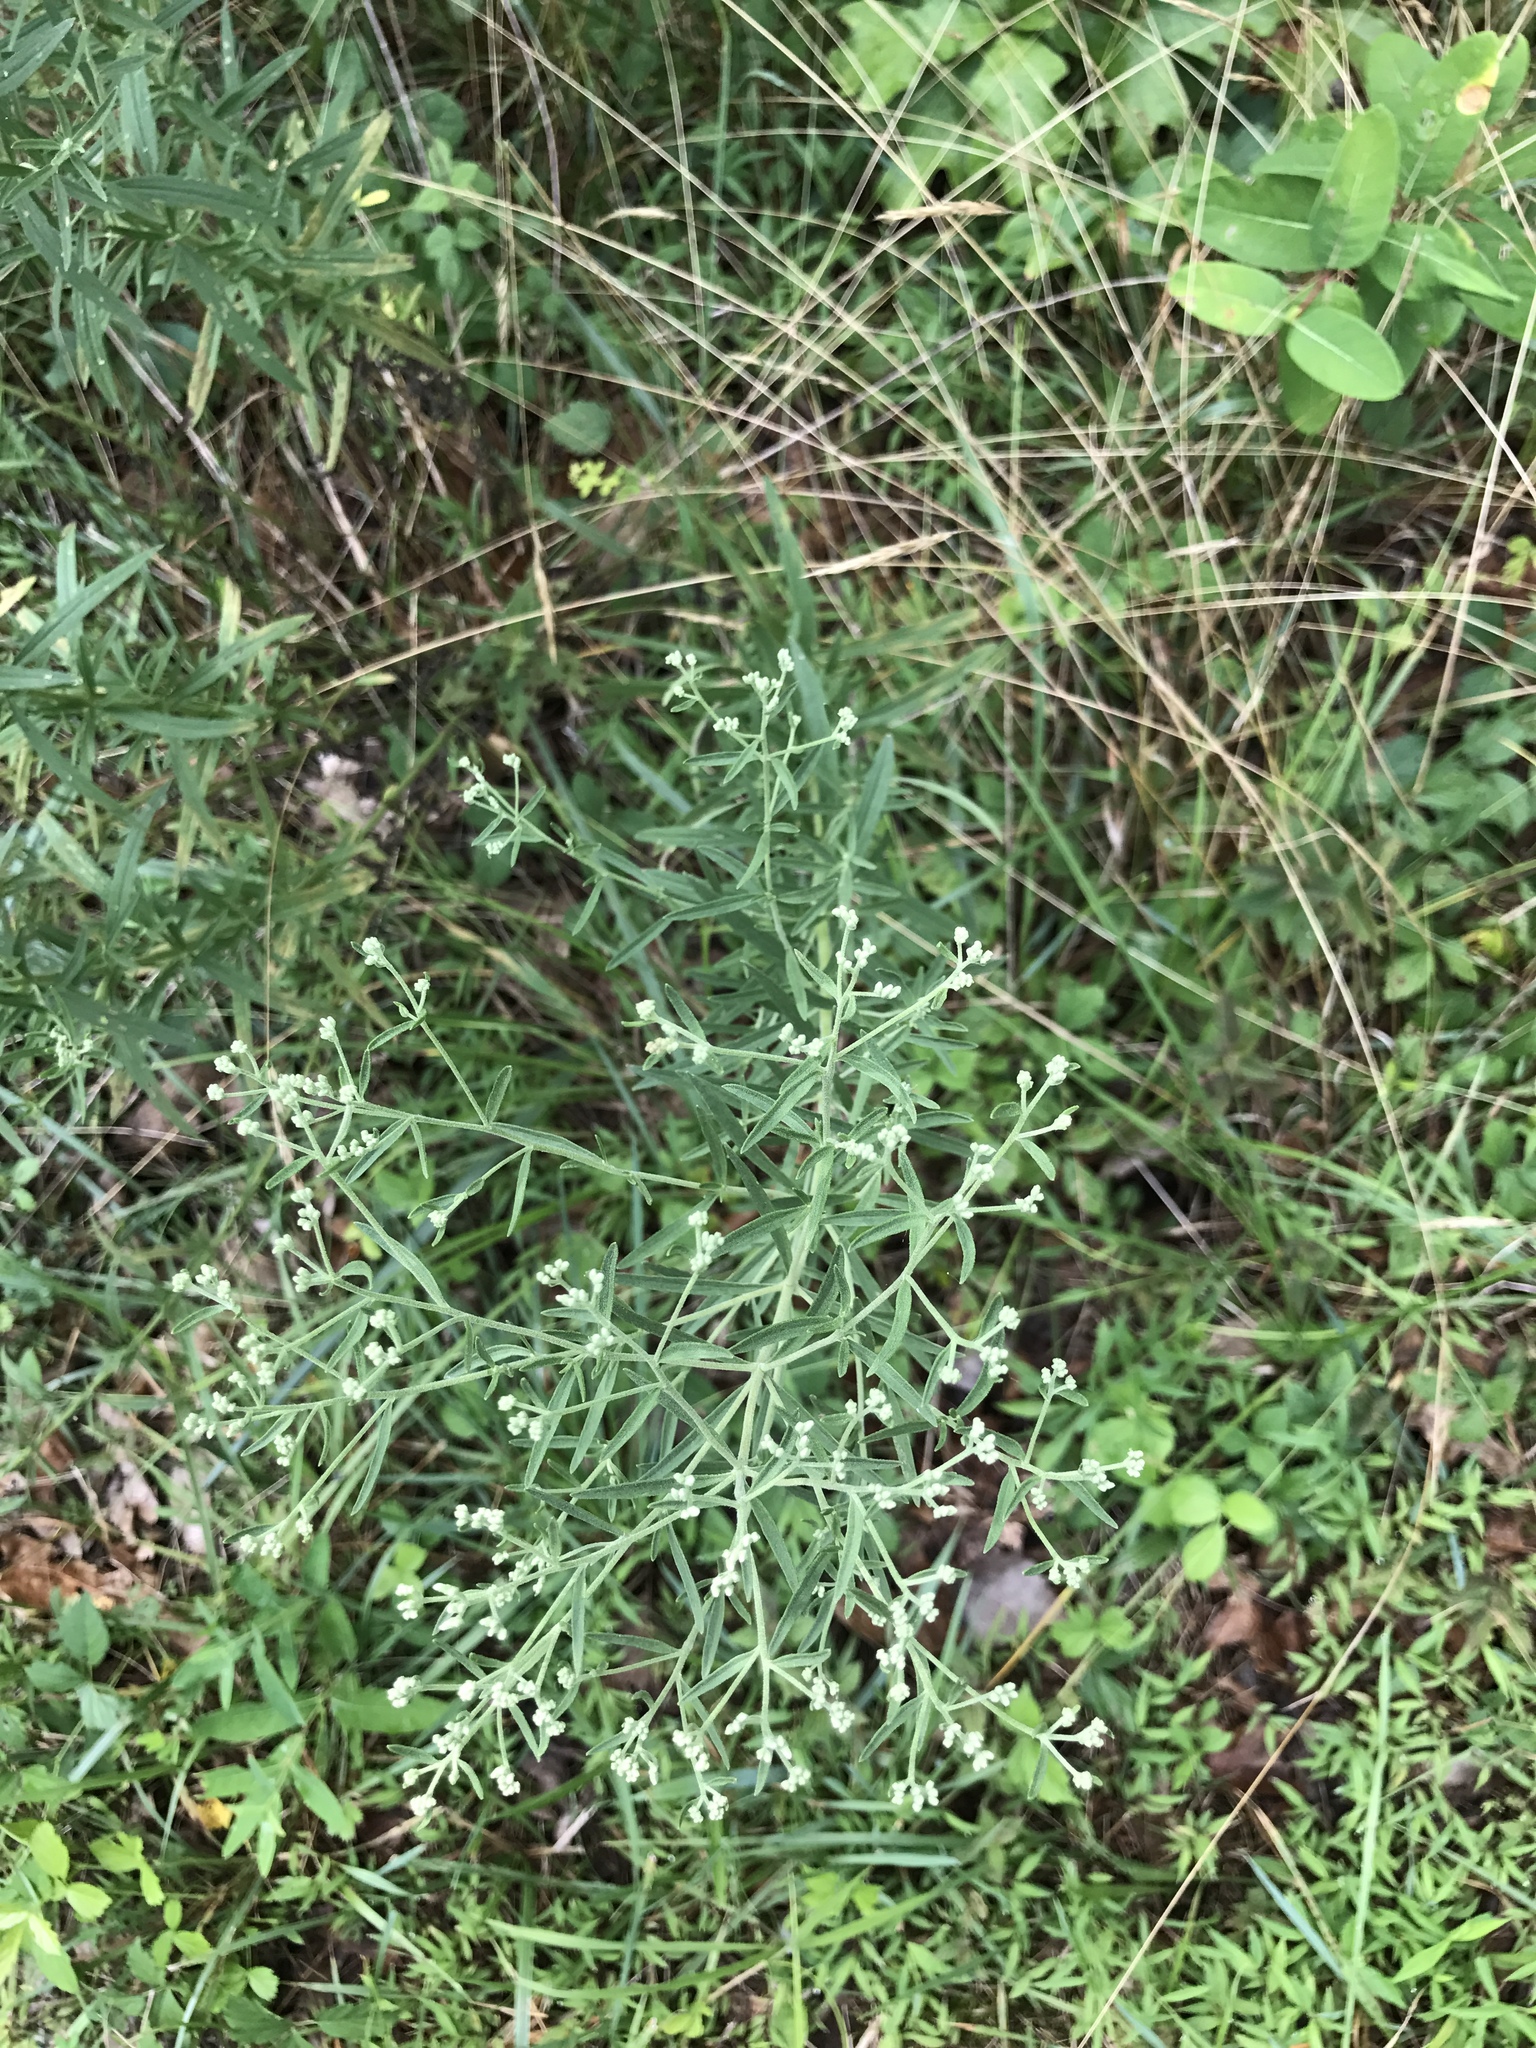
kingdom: Plantae
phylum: Tracheophyta
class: Magnoliopsida
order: Asterales
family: Asteraceae
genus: Eupatorium
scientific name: Eupatorium torreyanum
